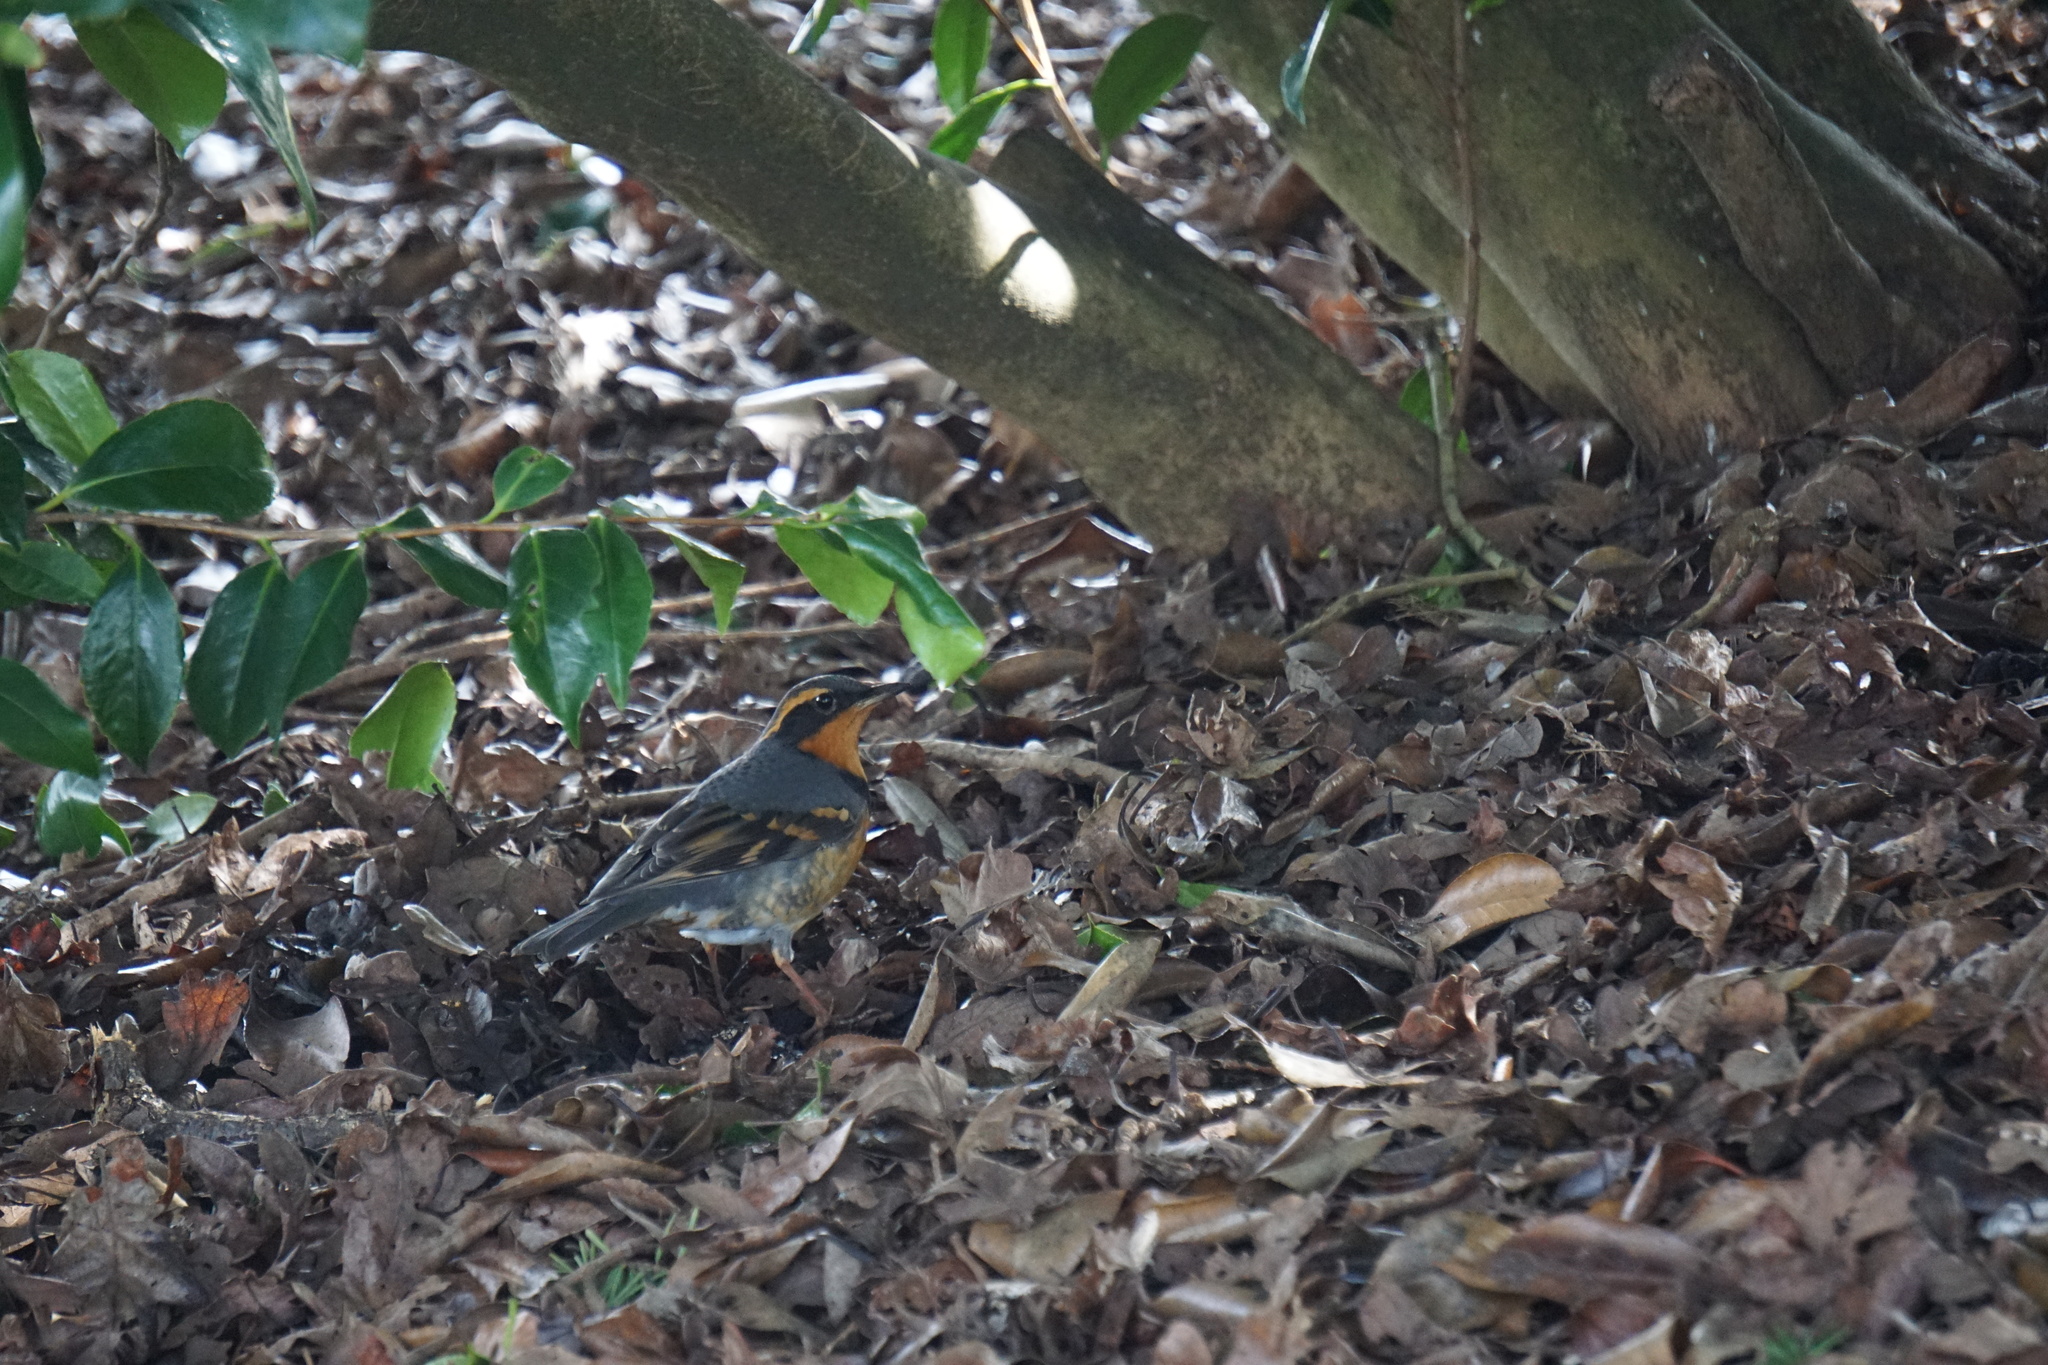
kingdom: Animalia
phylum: Chordata
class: Aves
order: Passeriformes
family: Turdidae
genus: Ixoreus
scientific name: Ixoreus naevius
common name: Varied thrush
